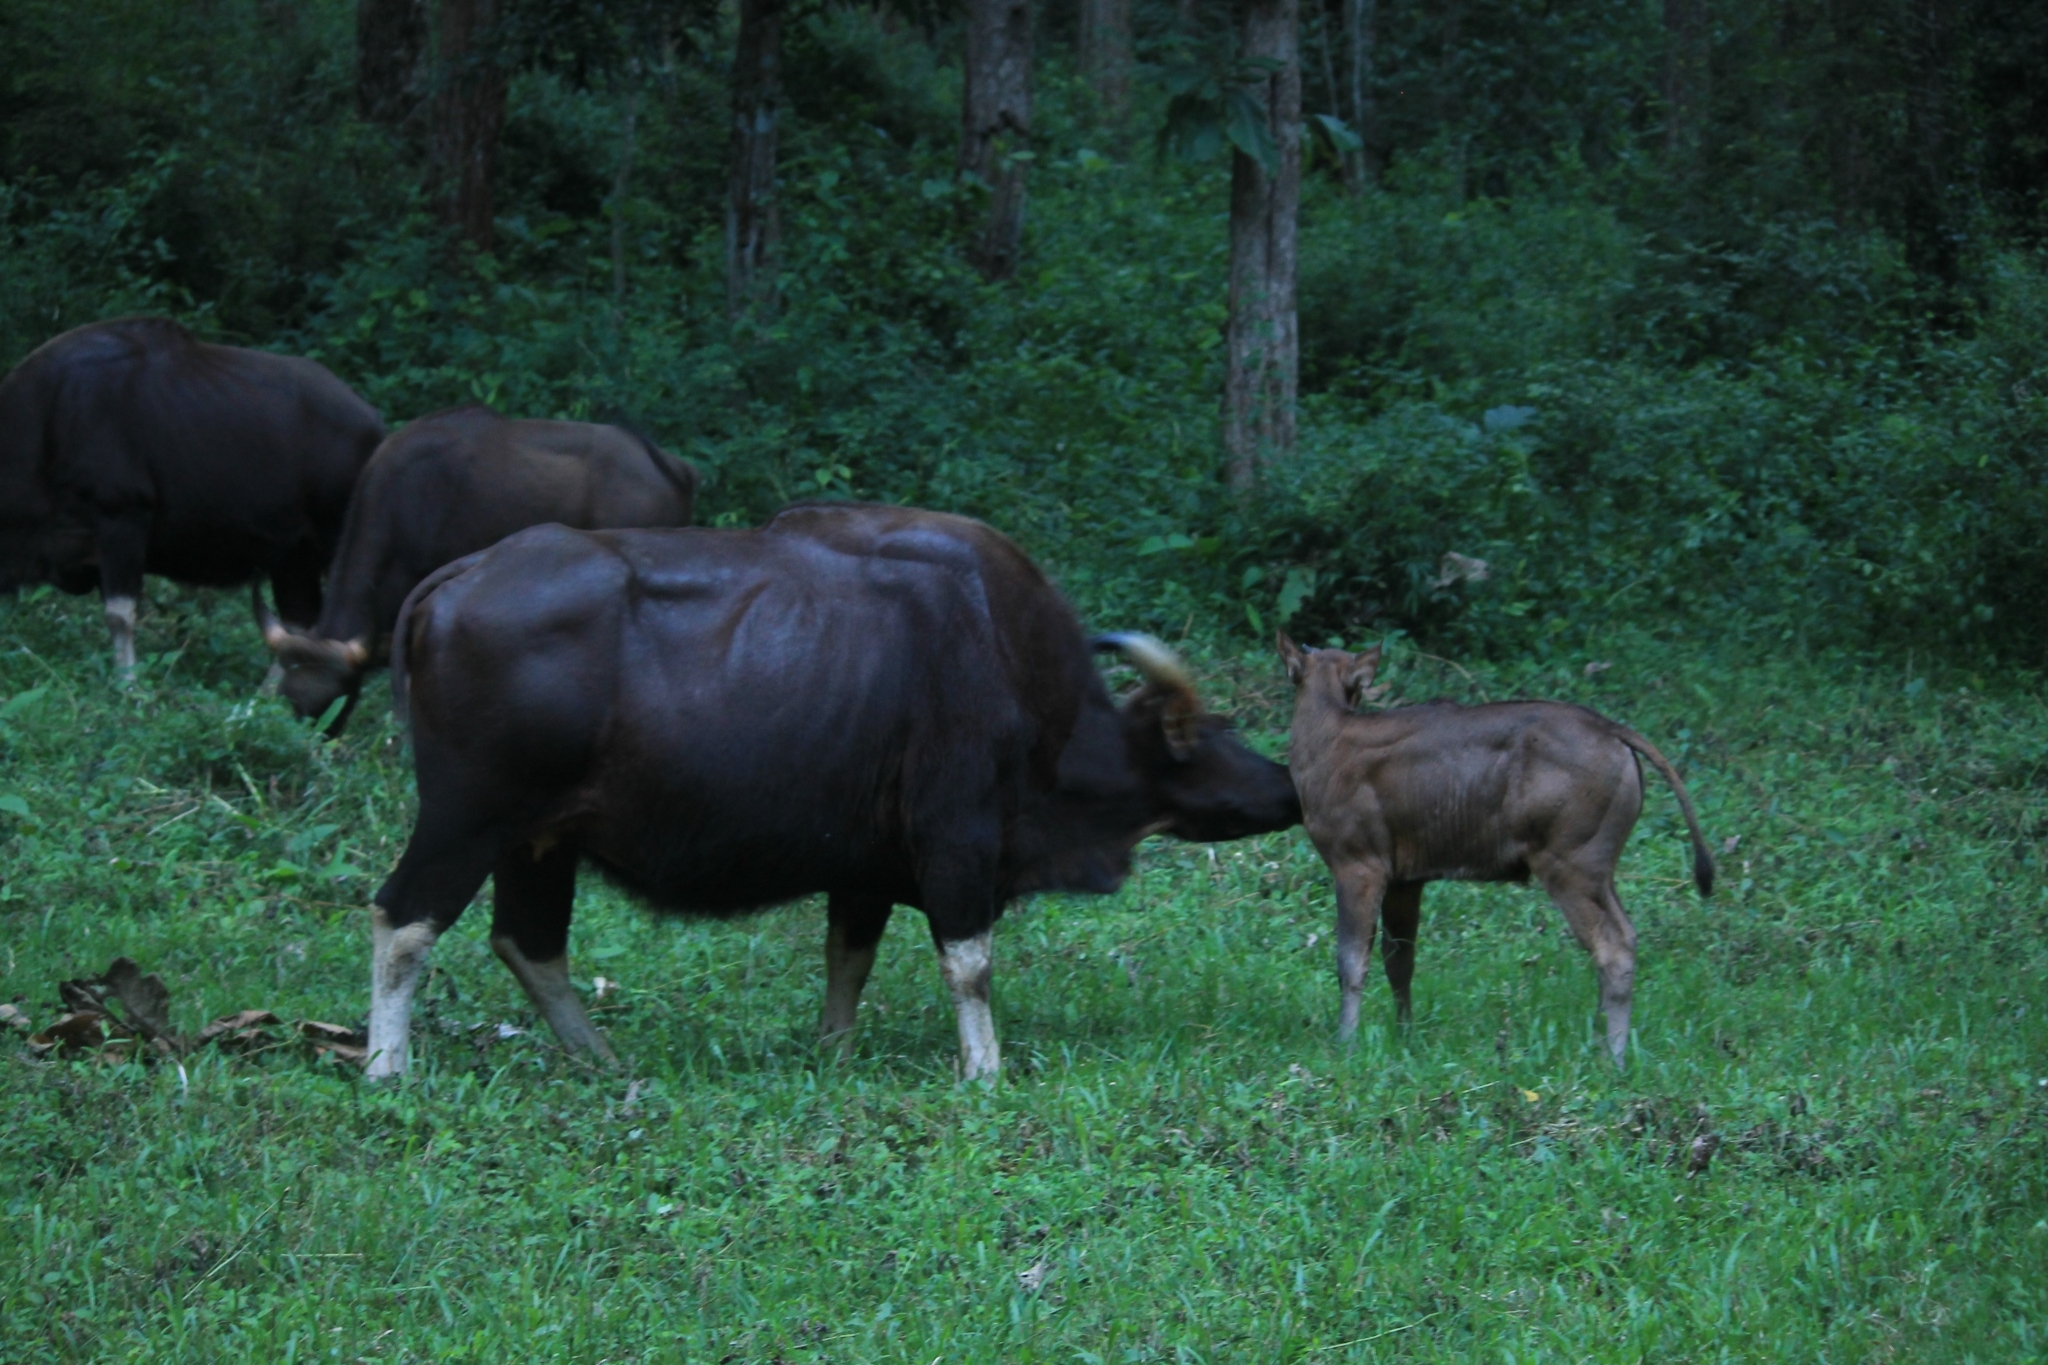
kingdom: Animalia
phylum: Chordata
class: Mammalia
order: Artiodactyla
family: Bovidae
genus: Bos
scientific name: Bos frontalis
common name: Gaur
